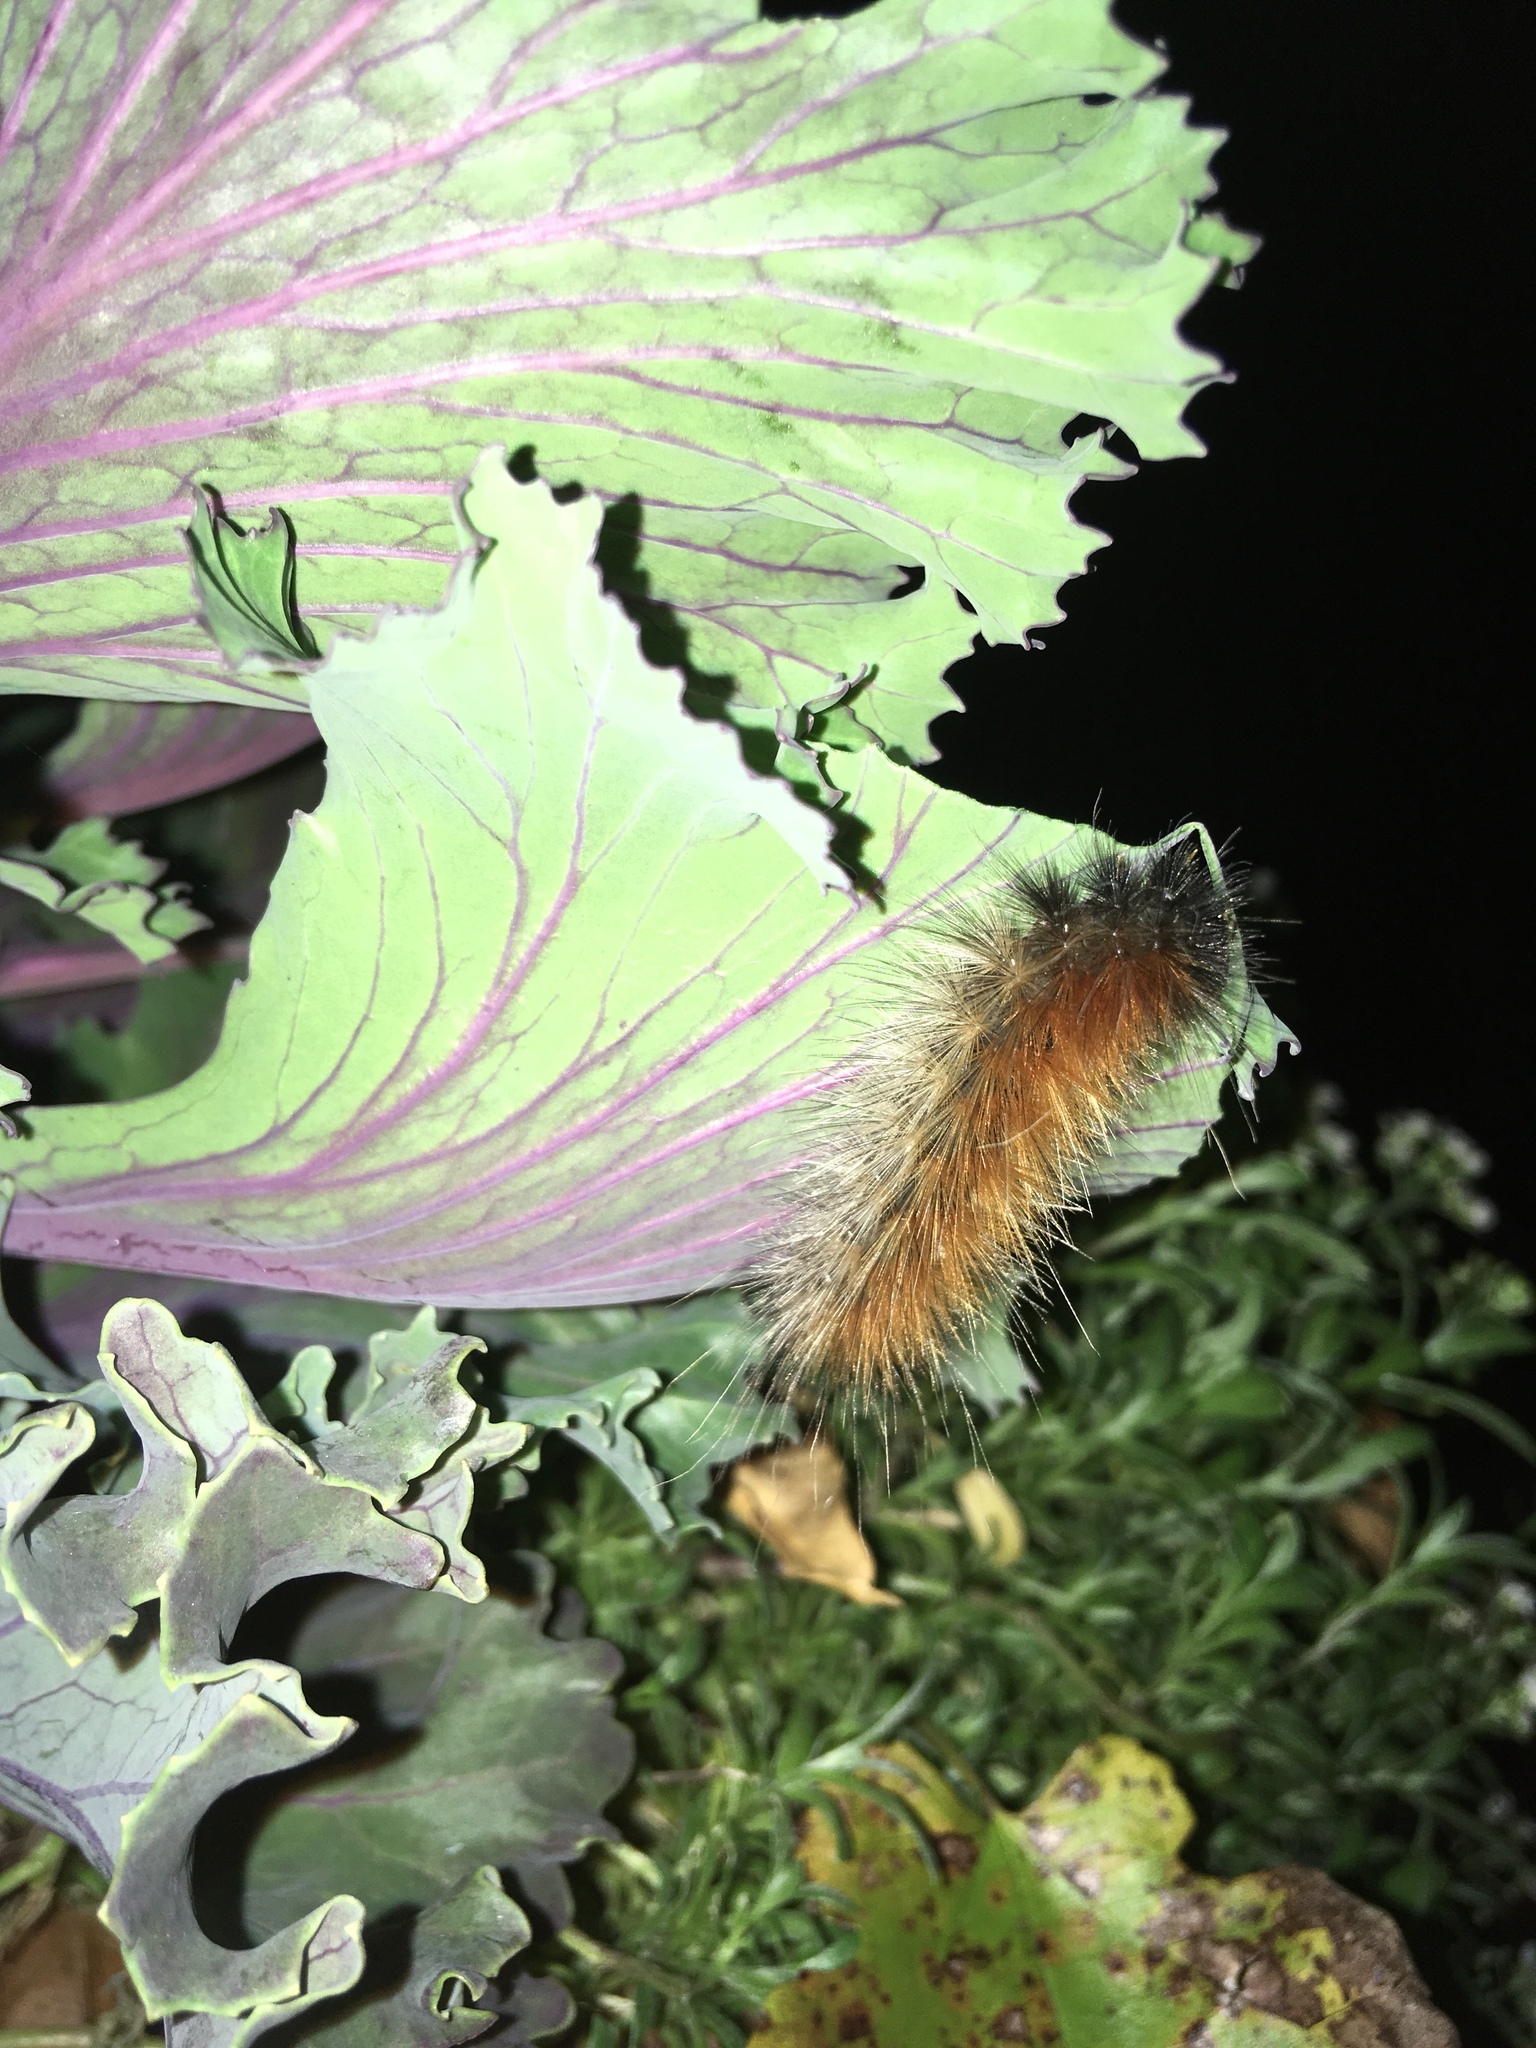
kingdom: Animalia
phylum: Arthropoda
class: Insecta
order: Lepidoptera
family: Erebidae
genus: Spilosoma
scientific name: Spilosoma virginica
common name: Virginia tiger moth
